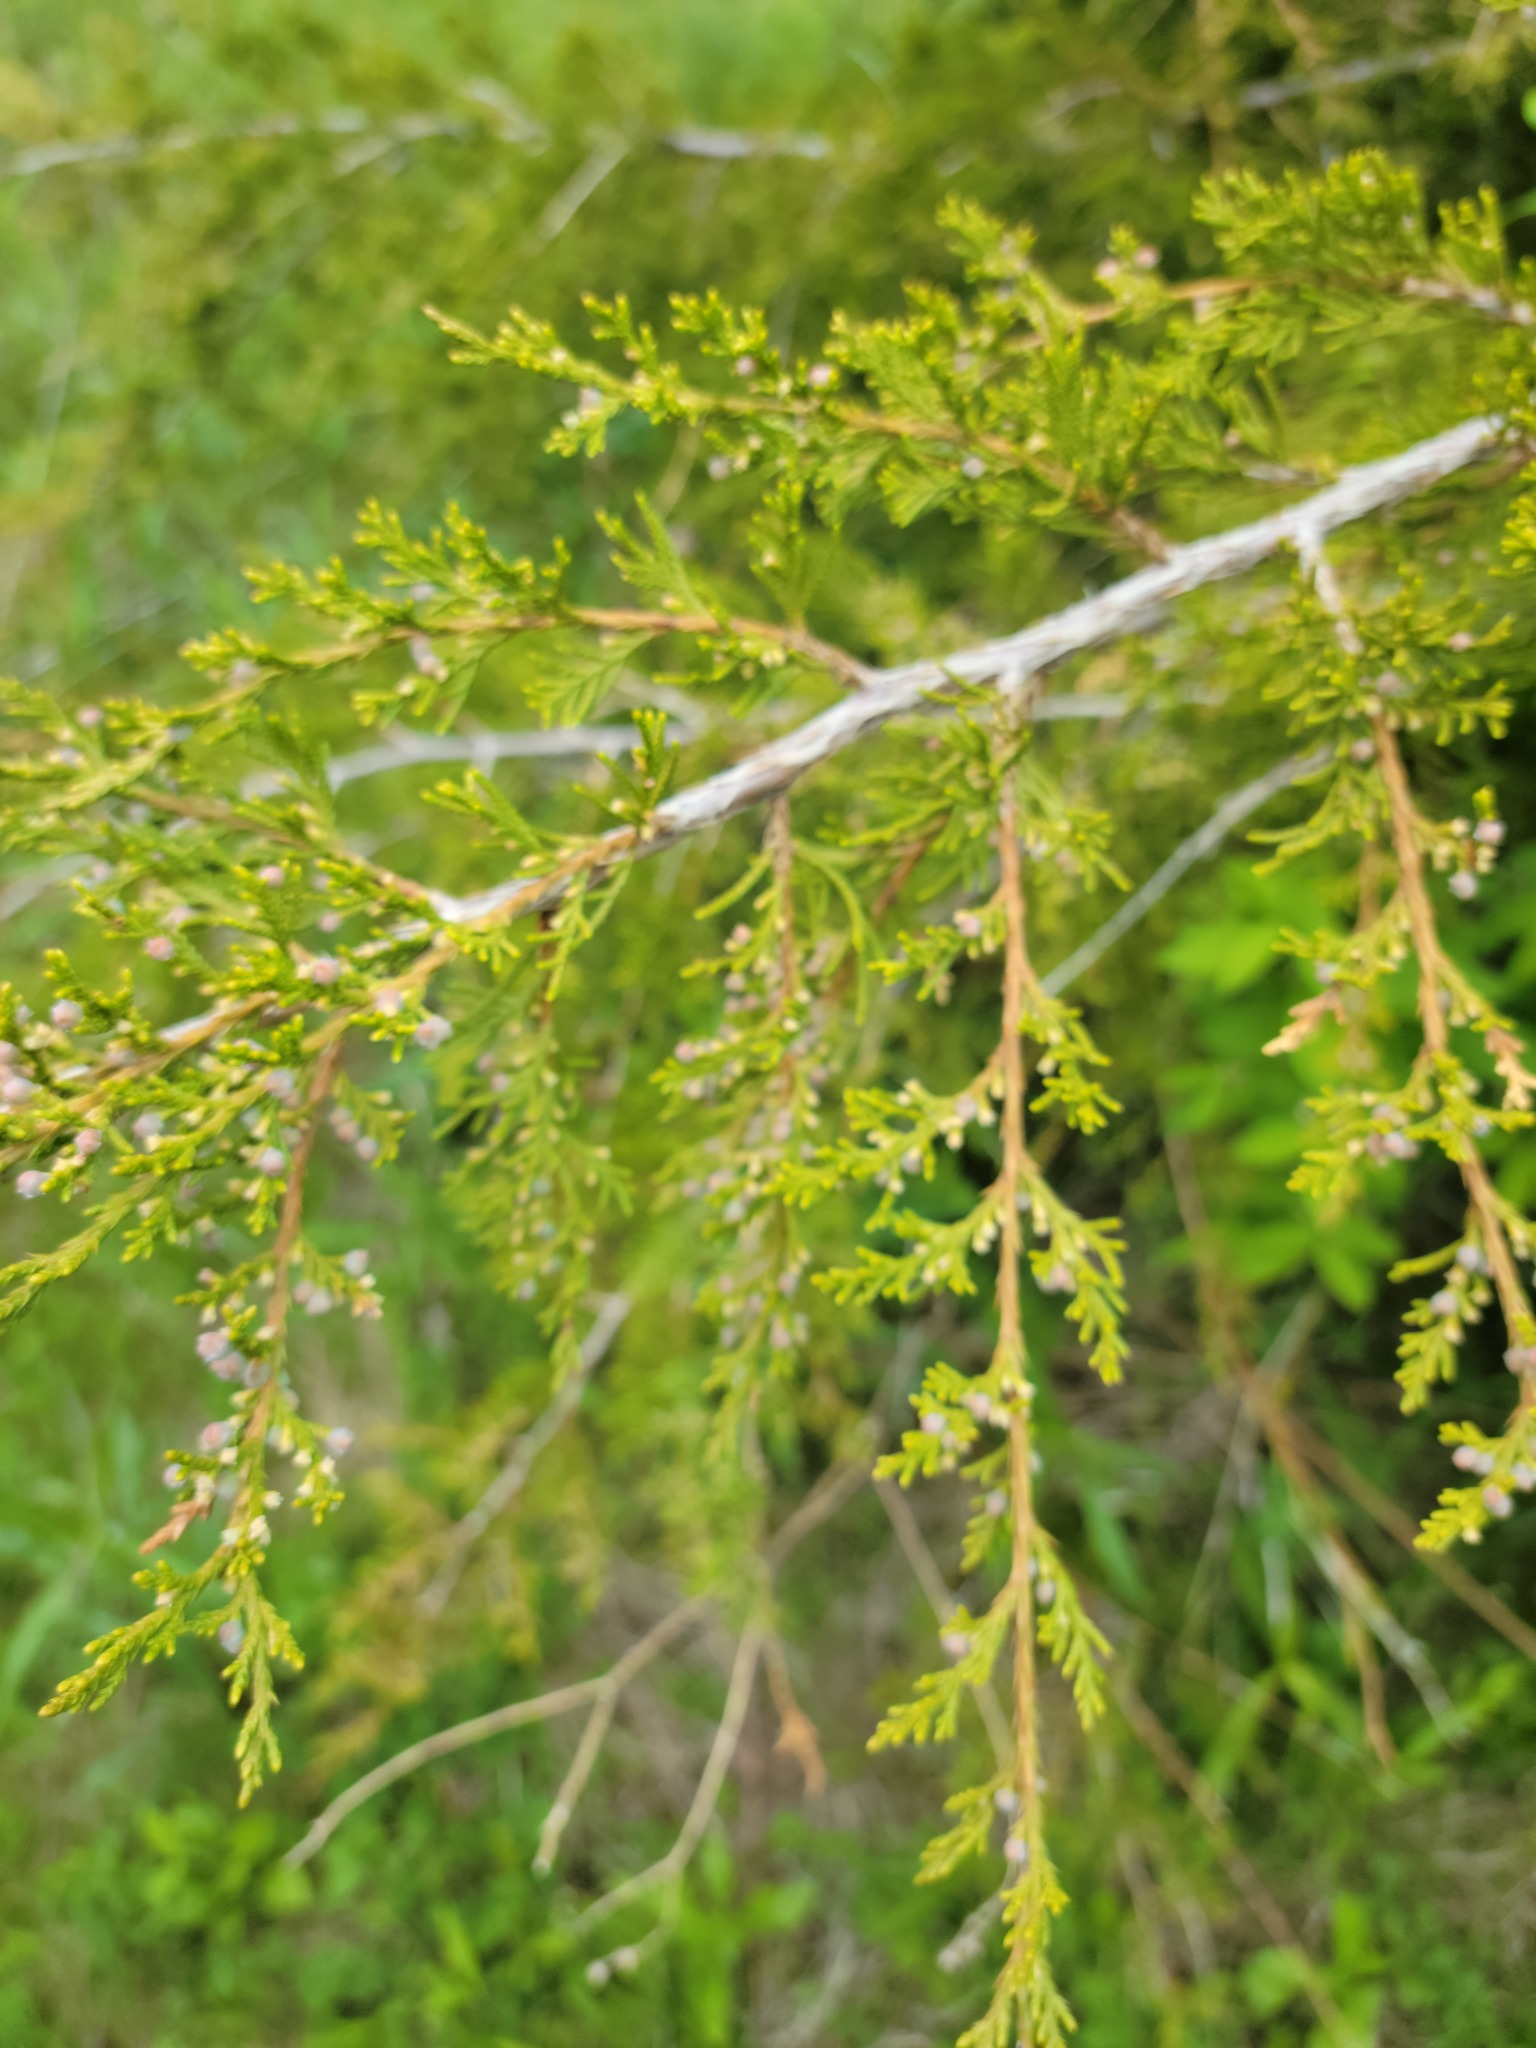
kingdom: Plantae
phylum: Tracheophyta
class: Pinopsida
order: Pinales
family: Cupressaceae
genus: Juniperus
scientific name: Juniperus virginiana
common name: Red juniper
